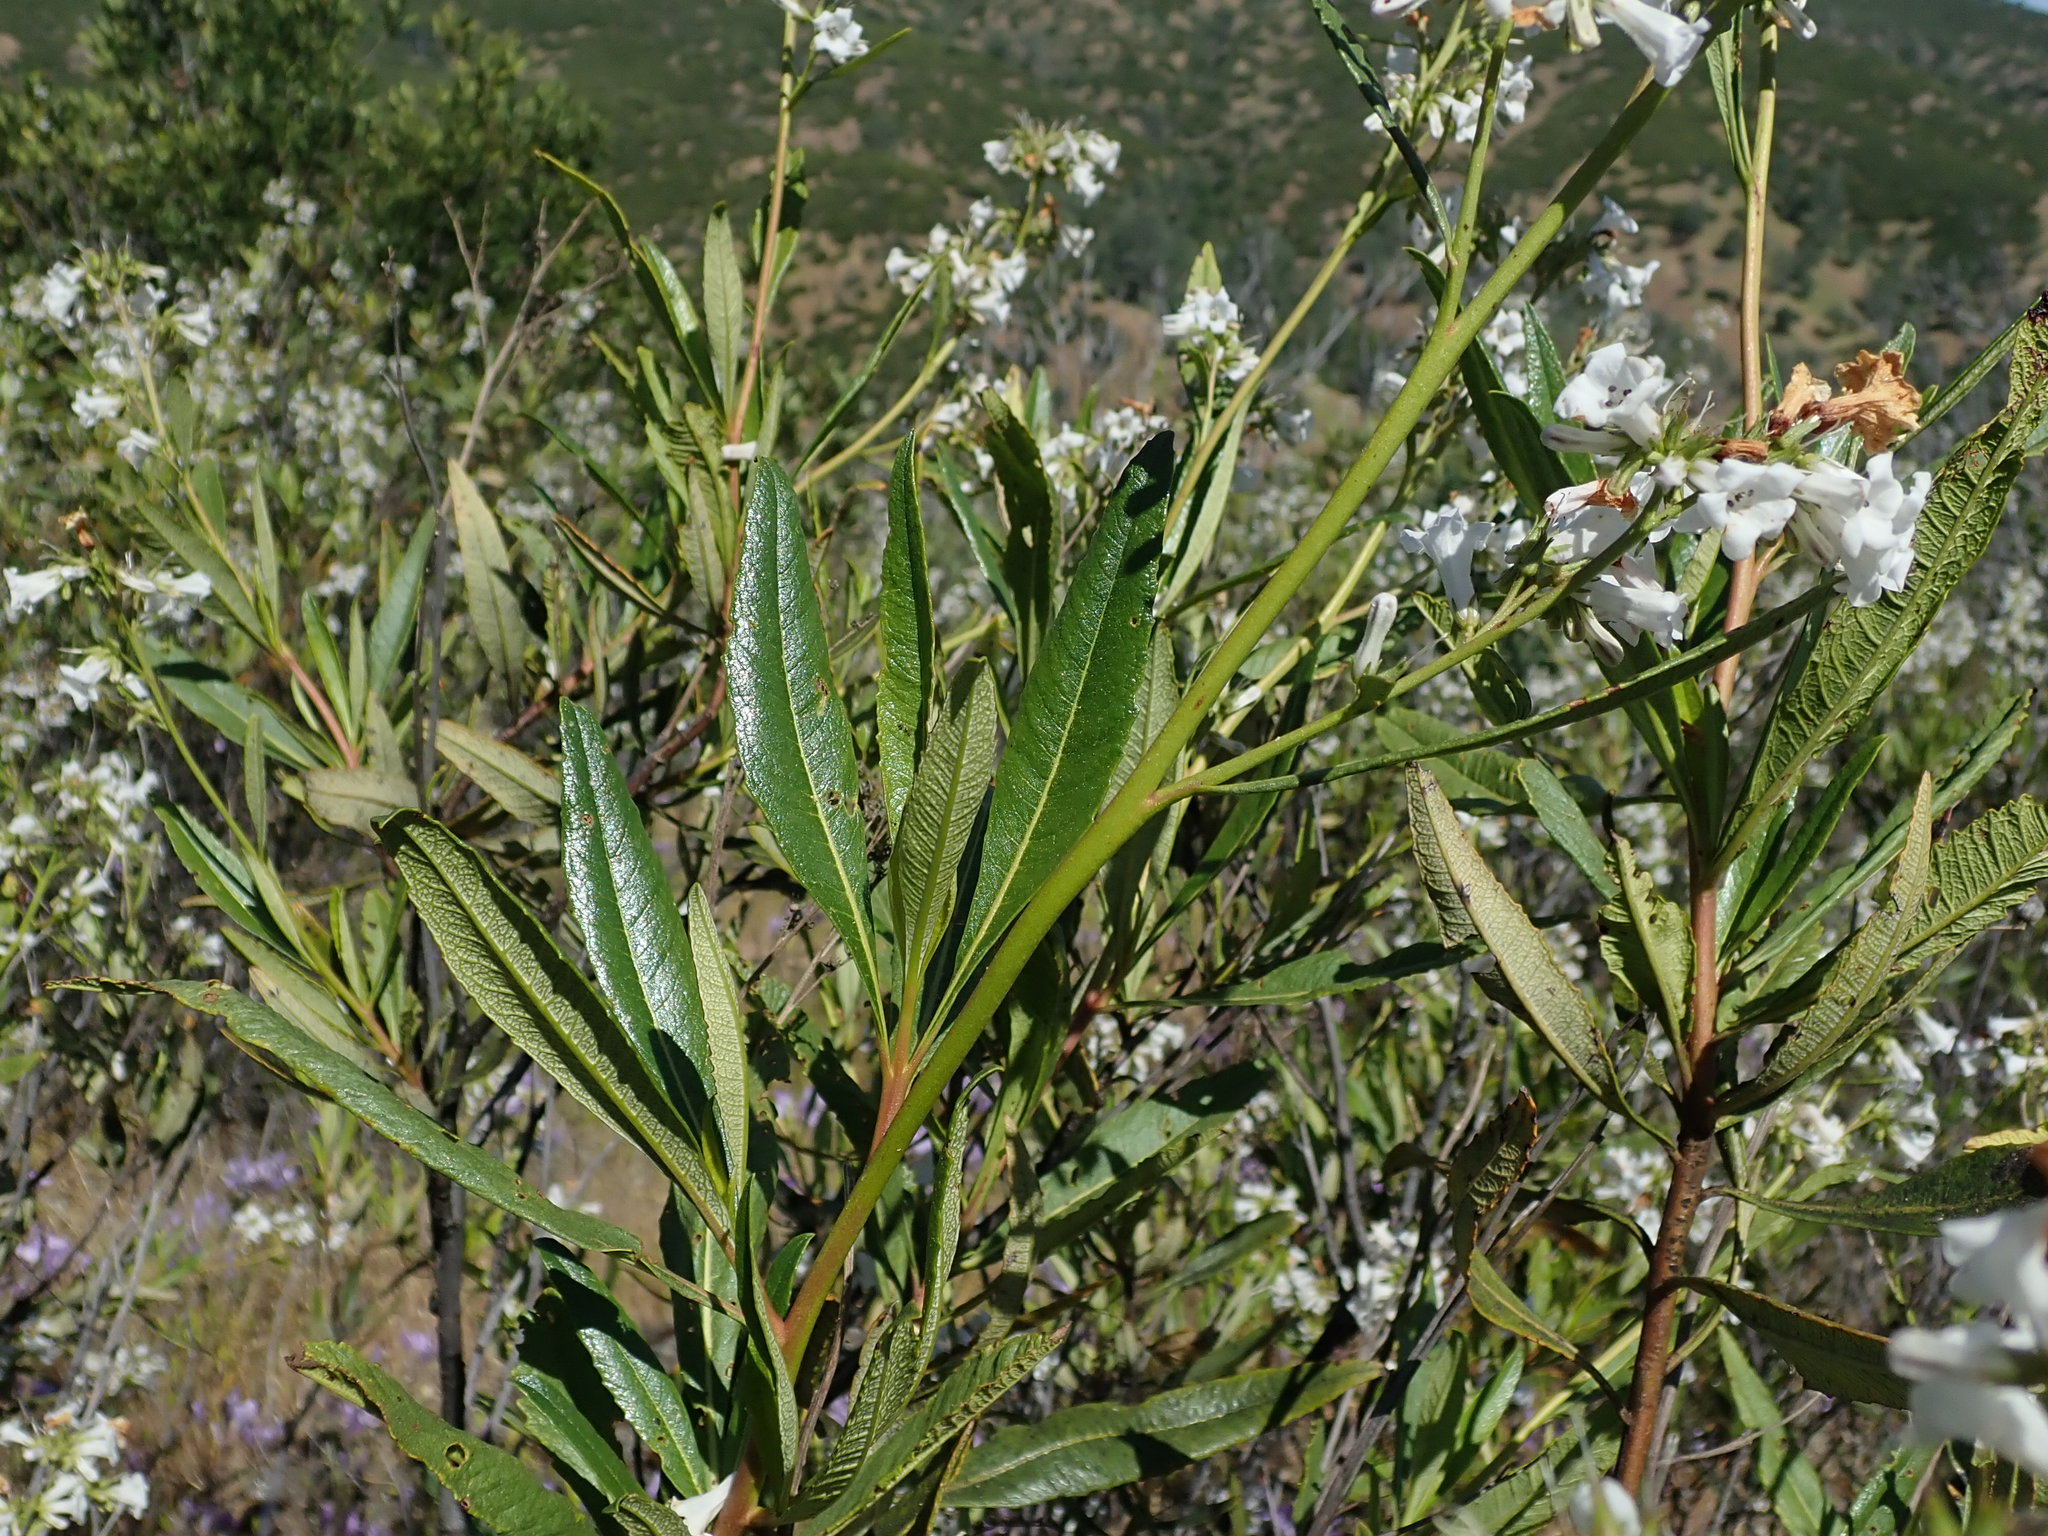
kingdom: Plantae
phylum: Tracheophyta
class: Magnoliopsida
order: Boraginales
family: Namaceae
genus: Eriodictyon
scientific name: Eriodictyon californicum
